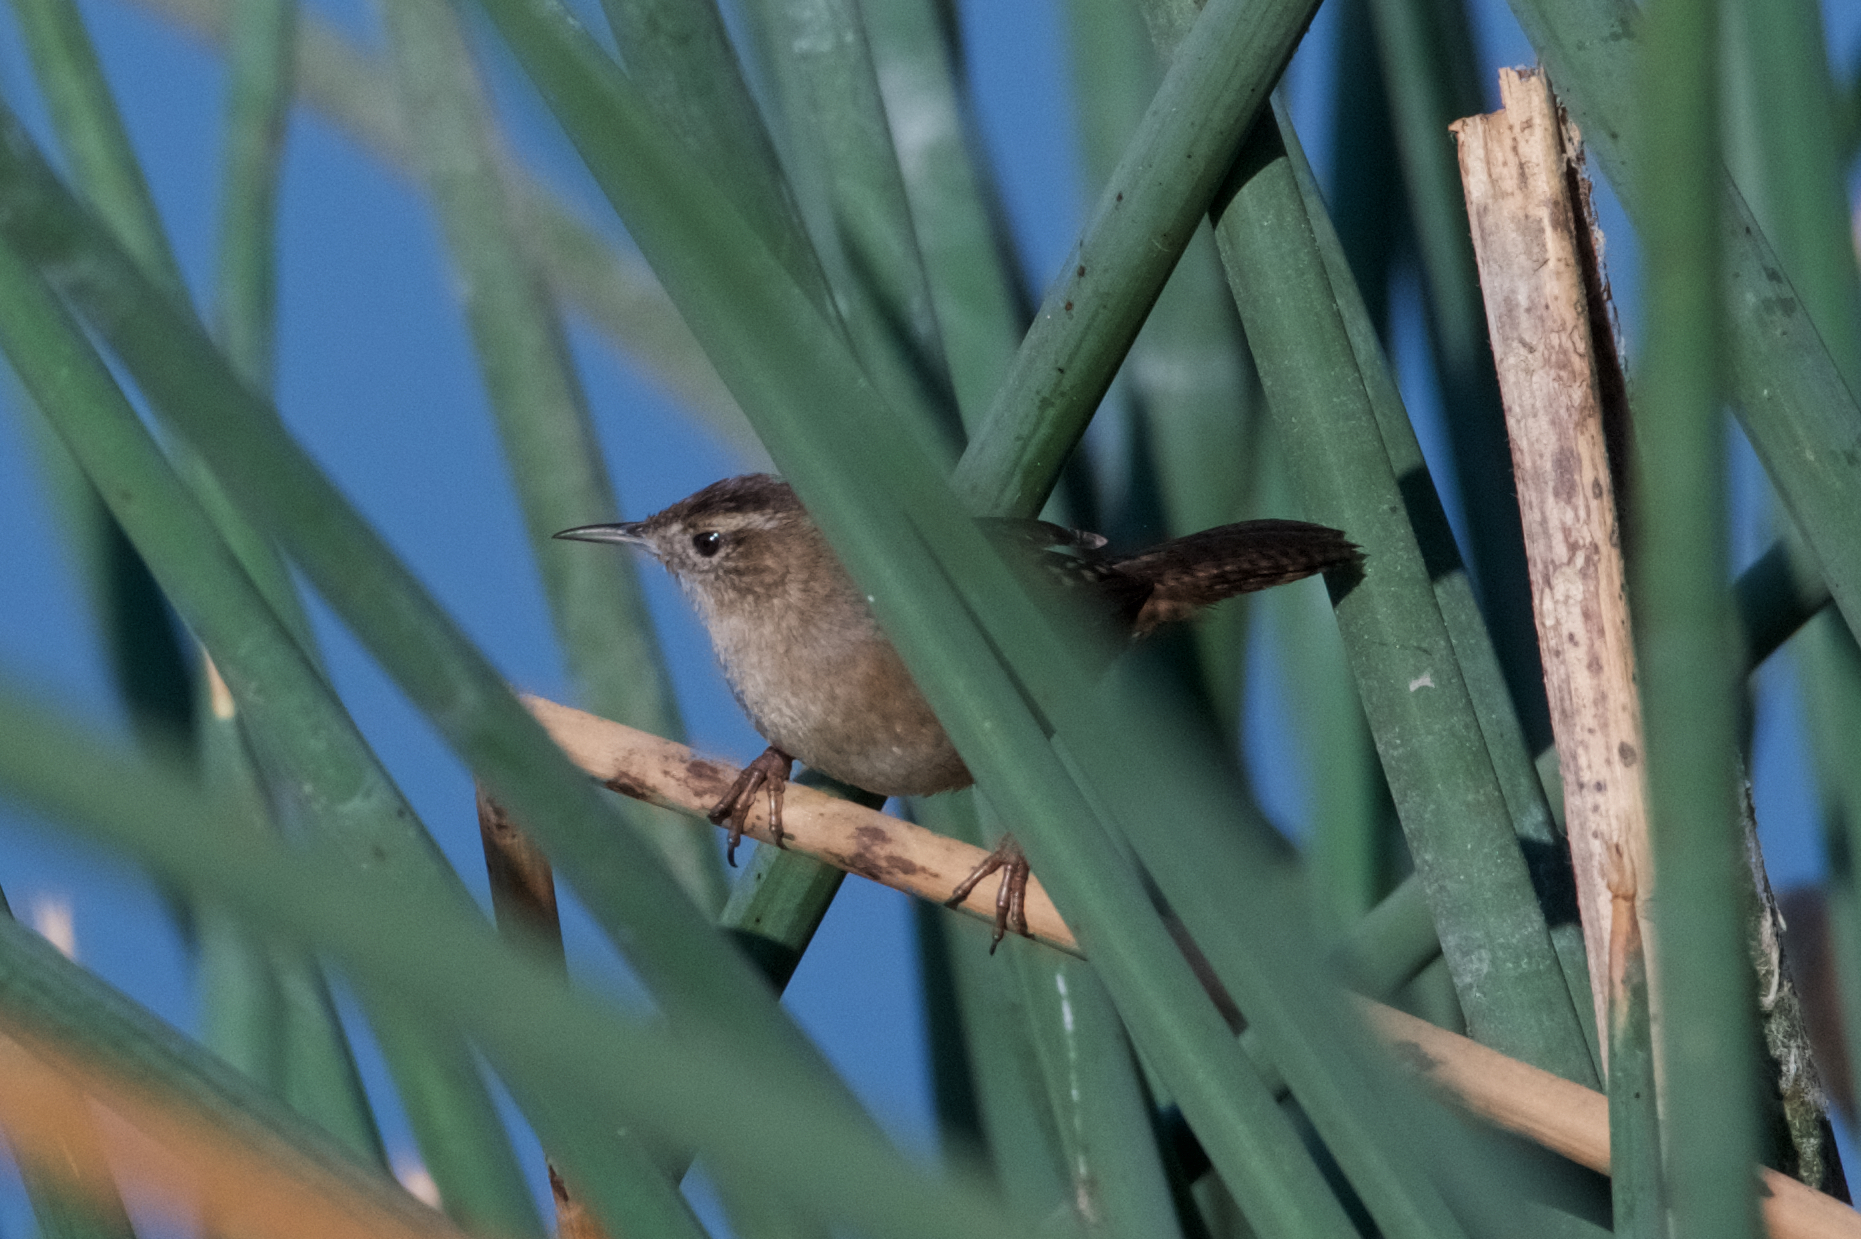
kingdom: Animalia
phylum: Chordata
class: Aves
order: Passeriformes
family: Troglodytidae
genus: Cistothorus
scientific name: Cistothorus palustris
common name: Marsh wren
